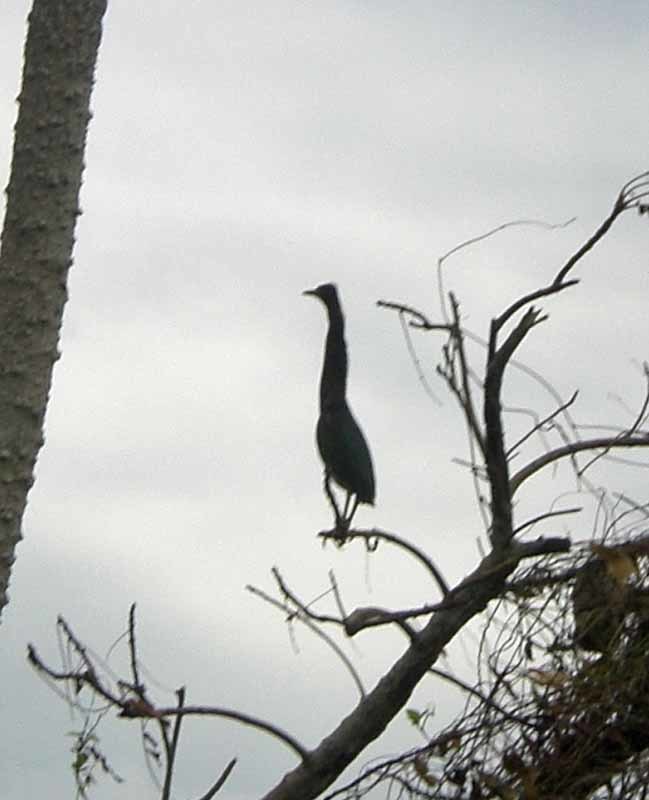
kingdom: Animalia
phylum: Chordata
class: Aves
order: Pelecaniformes
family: Ardeidae
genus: Ardea
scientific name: Ardea herodias
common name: Great blue heron
